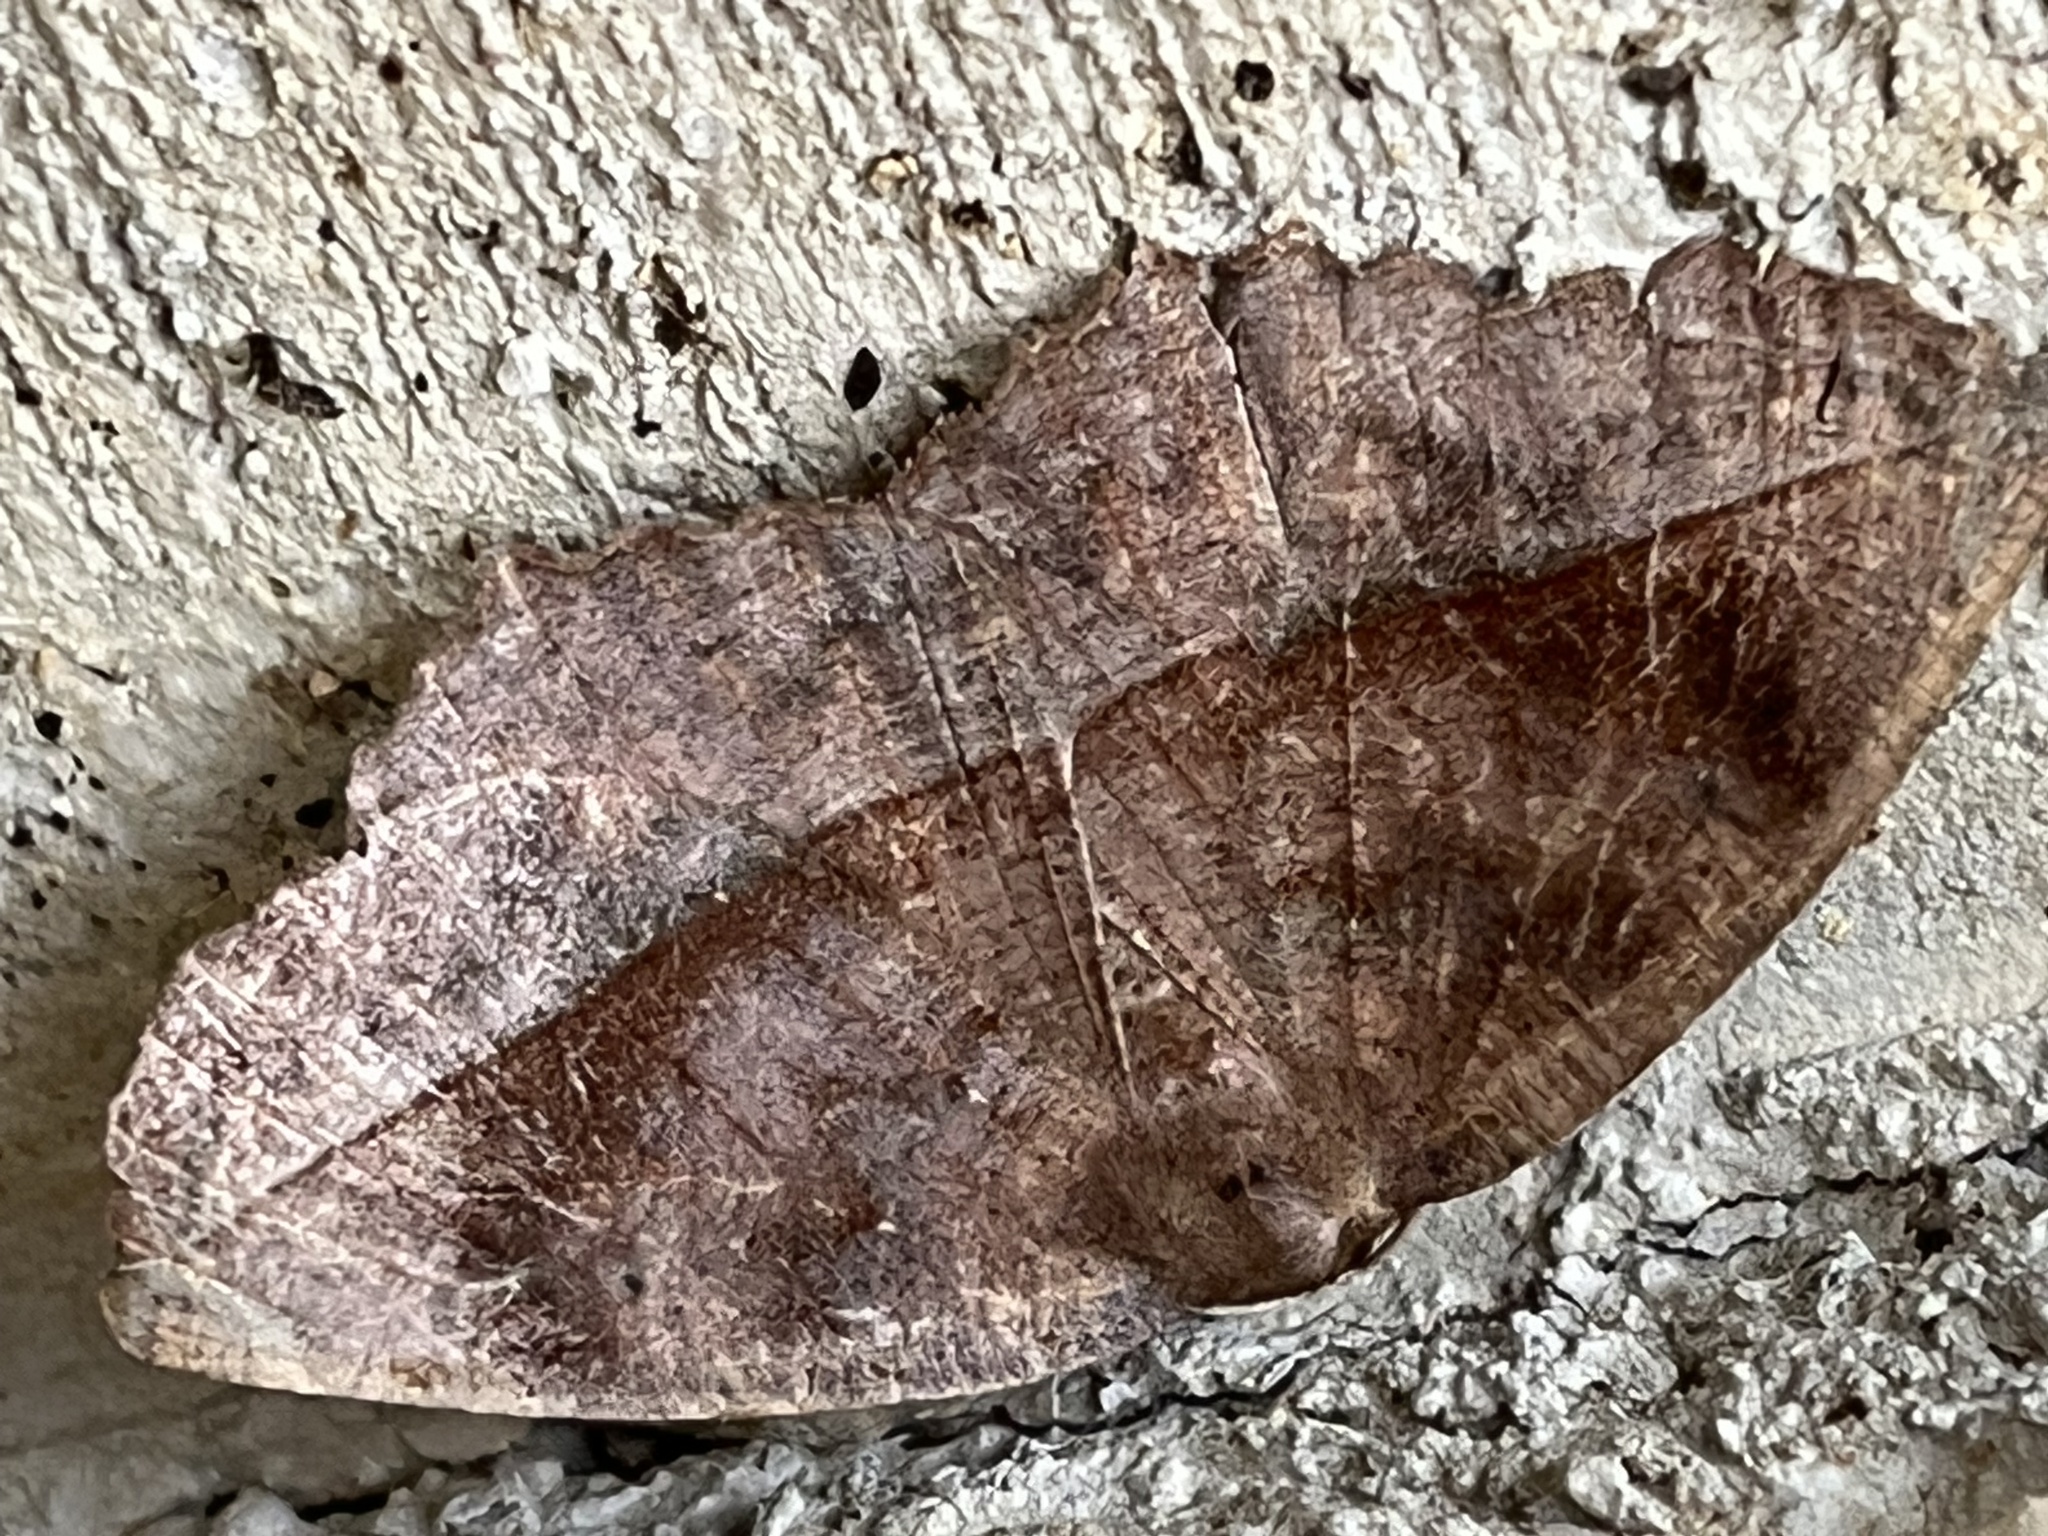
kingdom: Animalia
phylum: Arthropoda
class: Insecta
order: Lepidoptera
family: Geometridae
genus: Eutrapela
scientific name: Eutrapela clemataria
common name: Curved-toothed geometer
